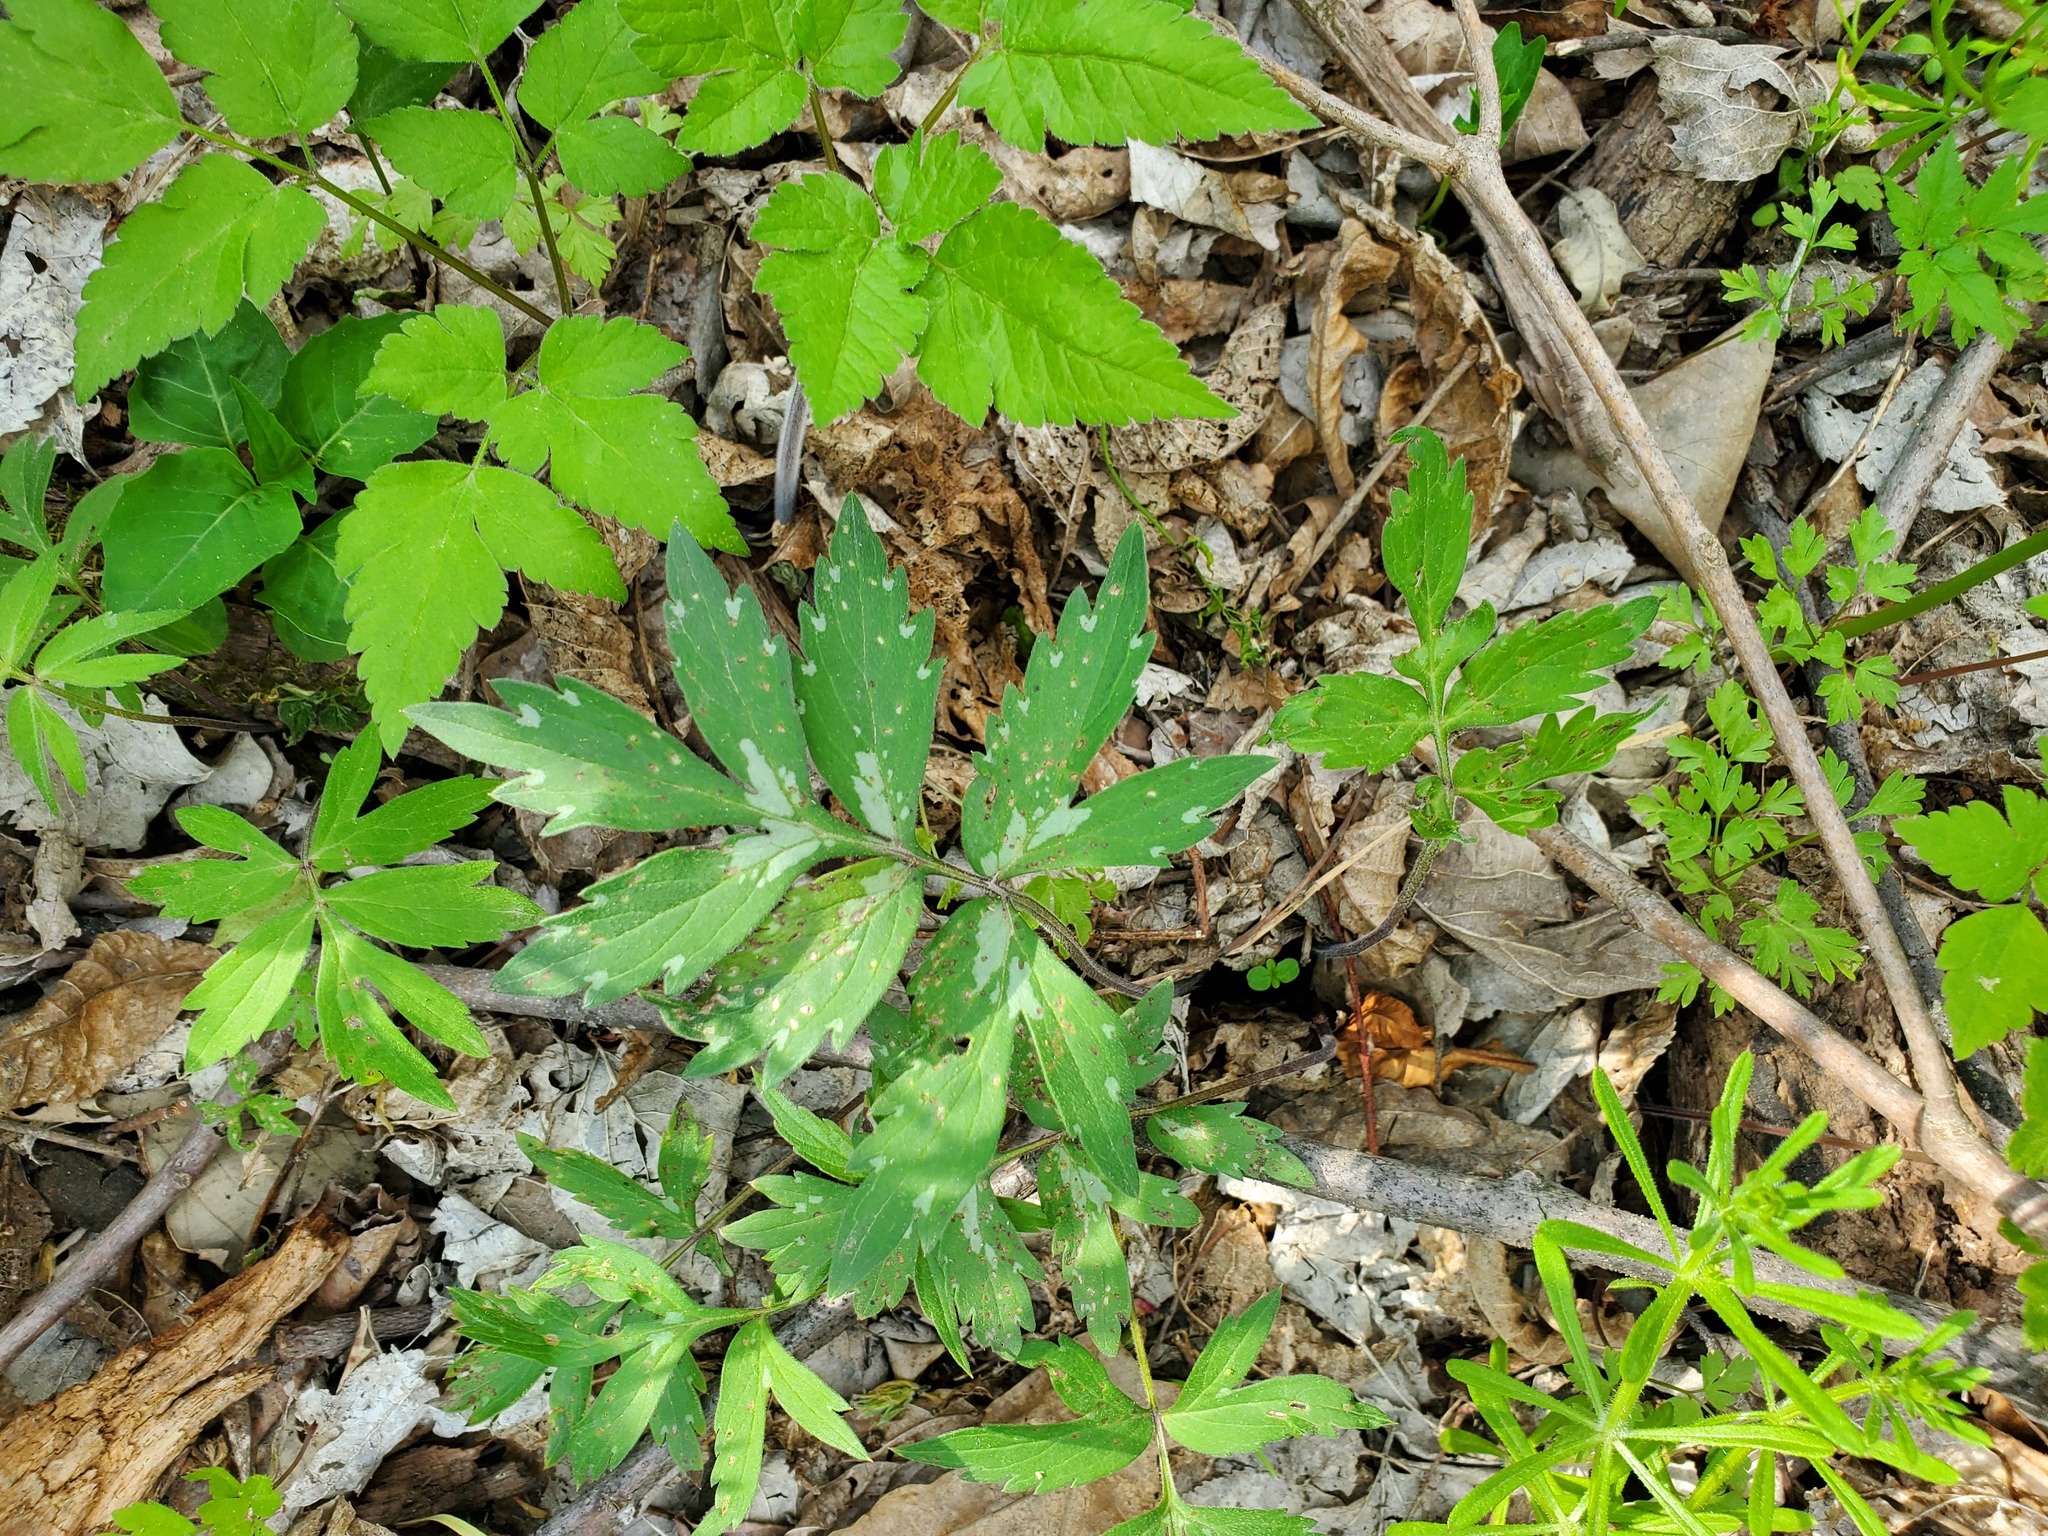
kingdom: Plantae
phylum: Tracheophyta
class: Magnoliopsida
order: Boraginales
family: Hydrophyllaceae
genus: Hydrophyllum
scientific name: Hydrophyllum virginianum
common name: Virginia waterleaf
